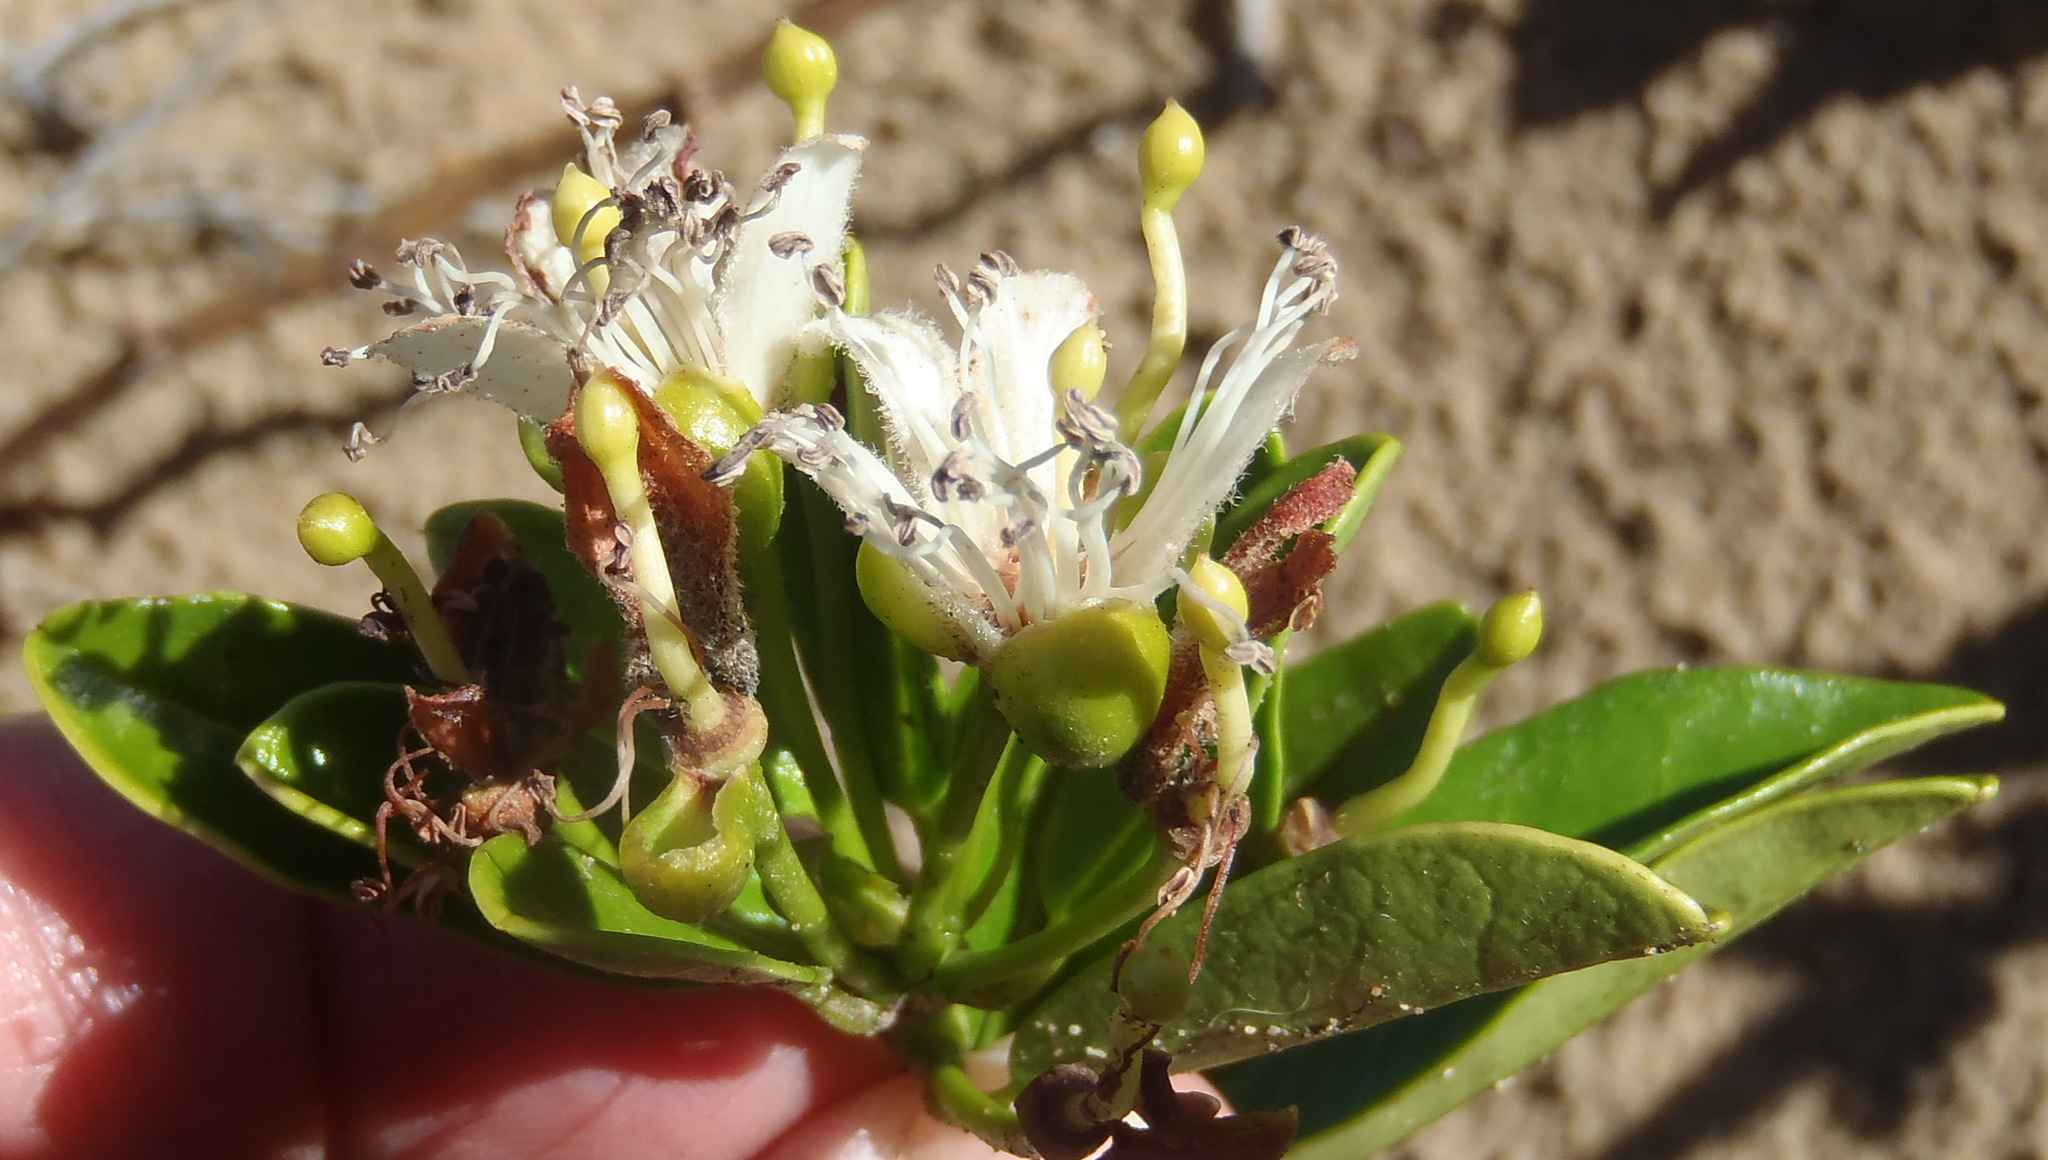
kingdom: Plantae
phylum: Tracheophyta
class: Magnoliopsida
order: Brassicales
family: Capparaceae
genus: Capparis
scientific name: Capparis sepiaria
